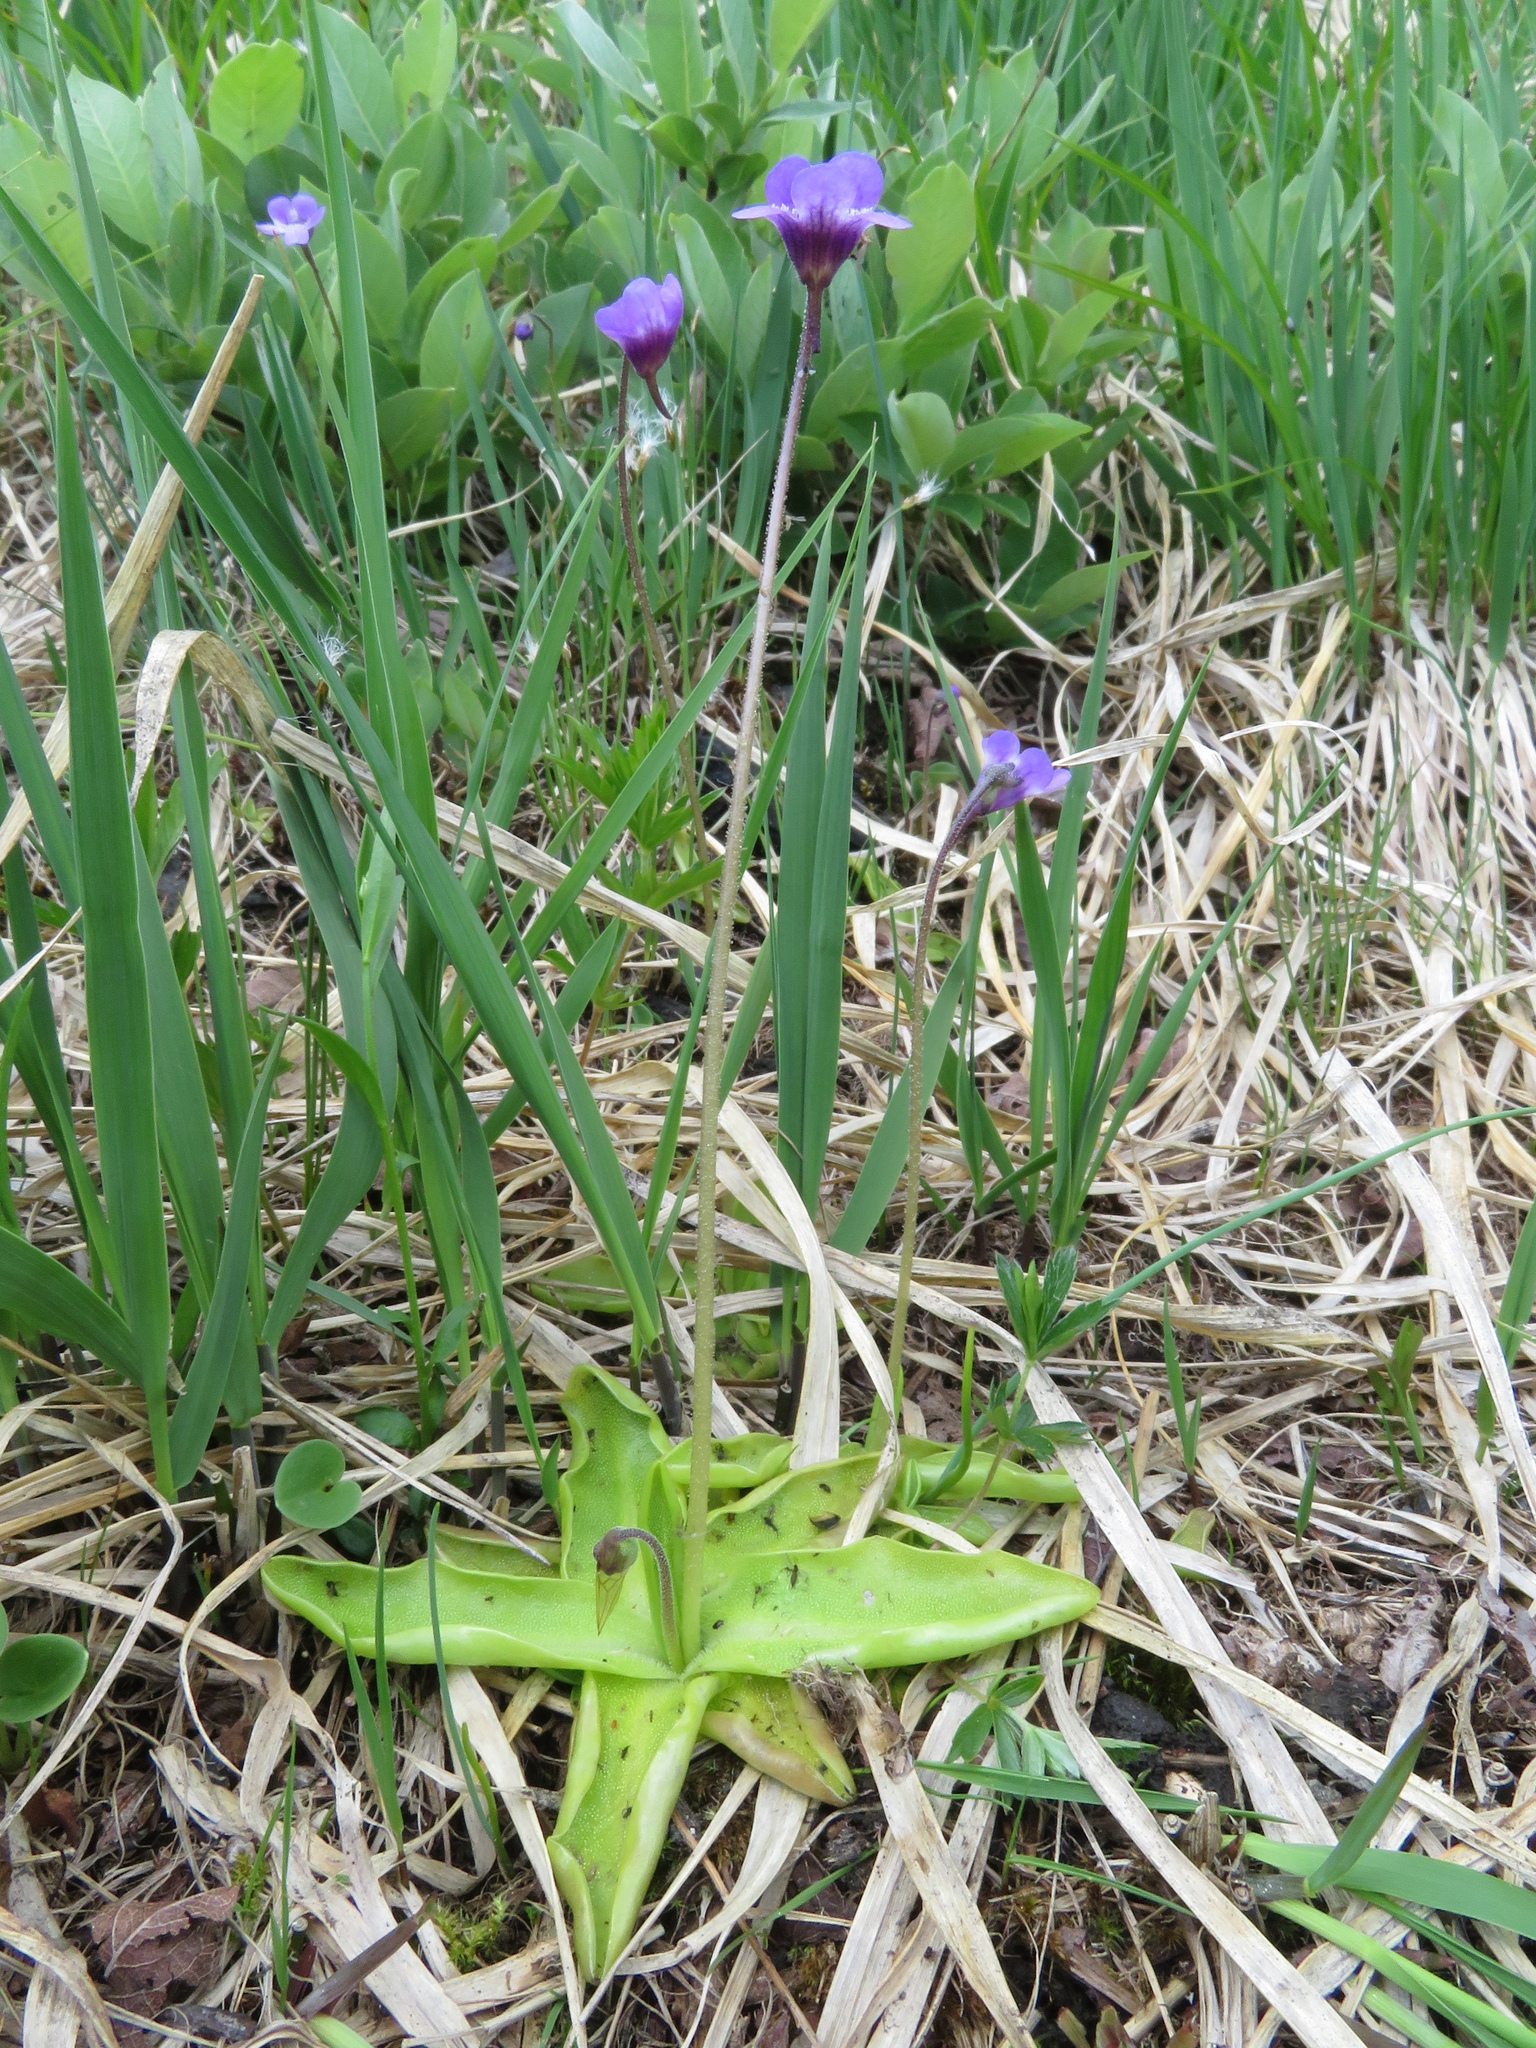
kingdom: Plantae
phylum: Tracheophyta
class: Magnoliopsida
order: Lamiales
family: Lentibulariaceae
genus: Pinguicula
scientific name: Pinguicula vulgaris
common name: Common butterwort
